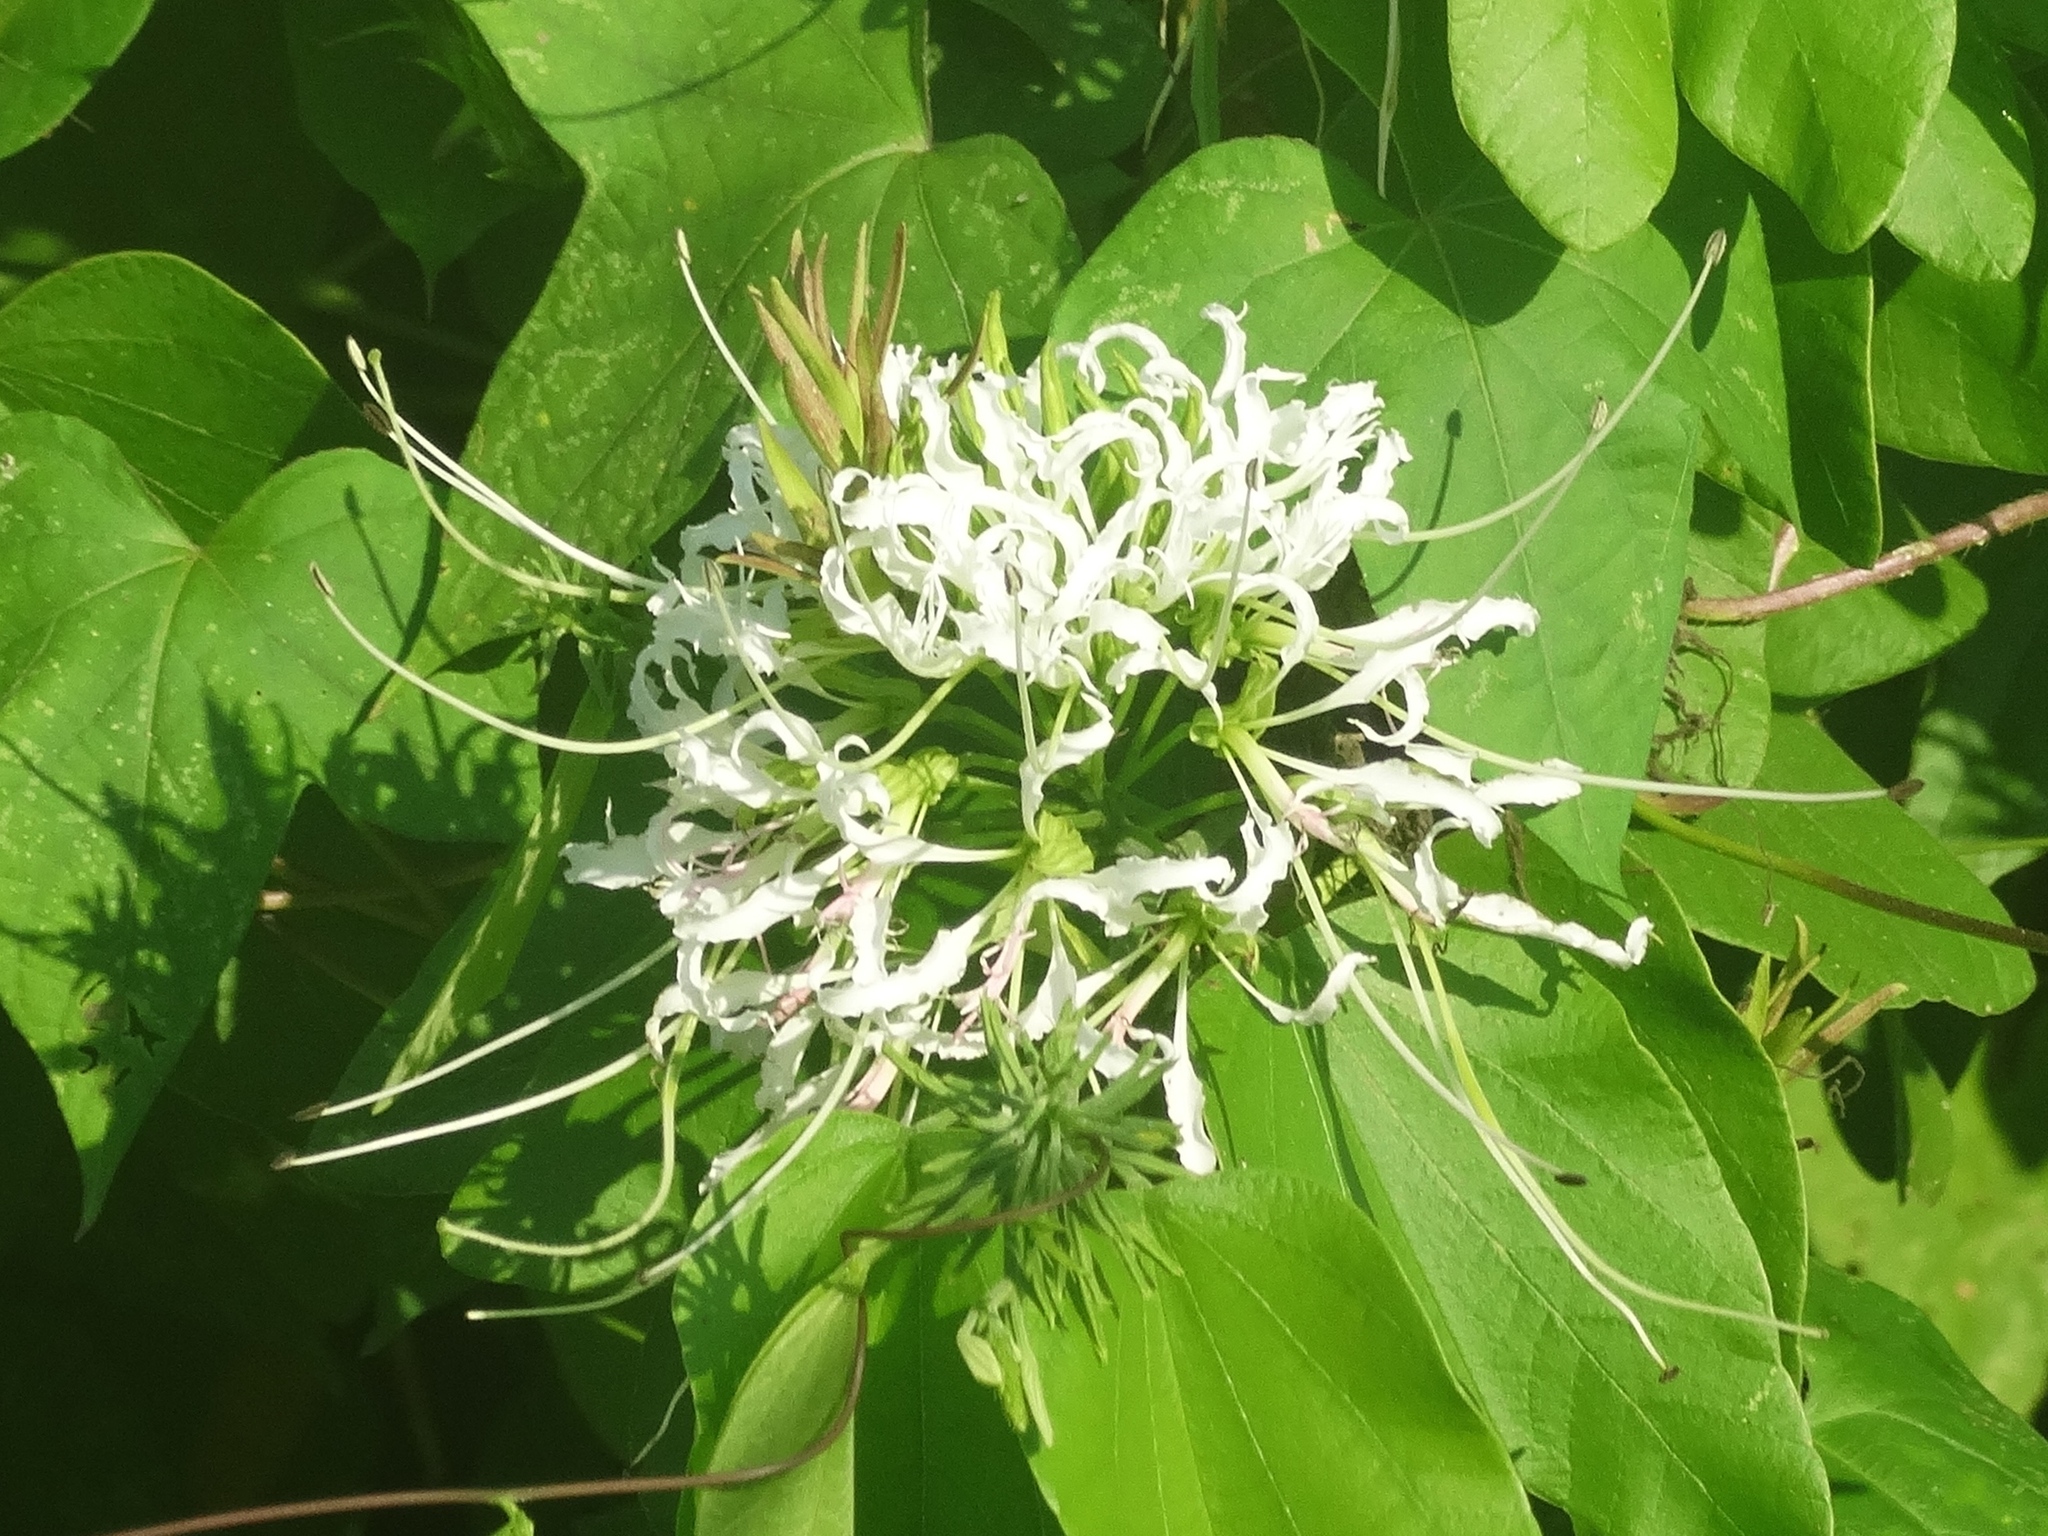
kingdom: Plantae
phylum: Tracheophyta
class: Magnoliopsida
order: Fabales
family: Fabaceae
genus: Bauhinia
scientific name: Bauhinia divaricata
